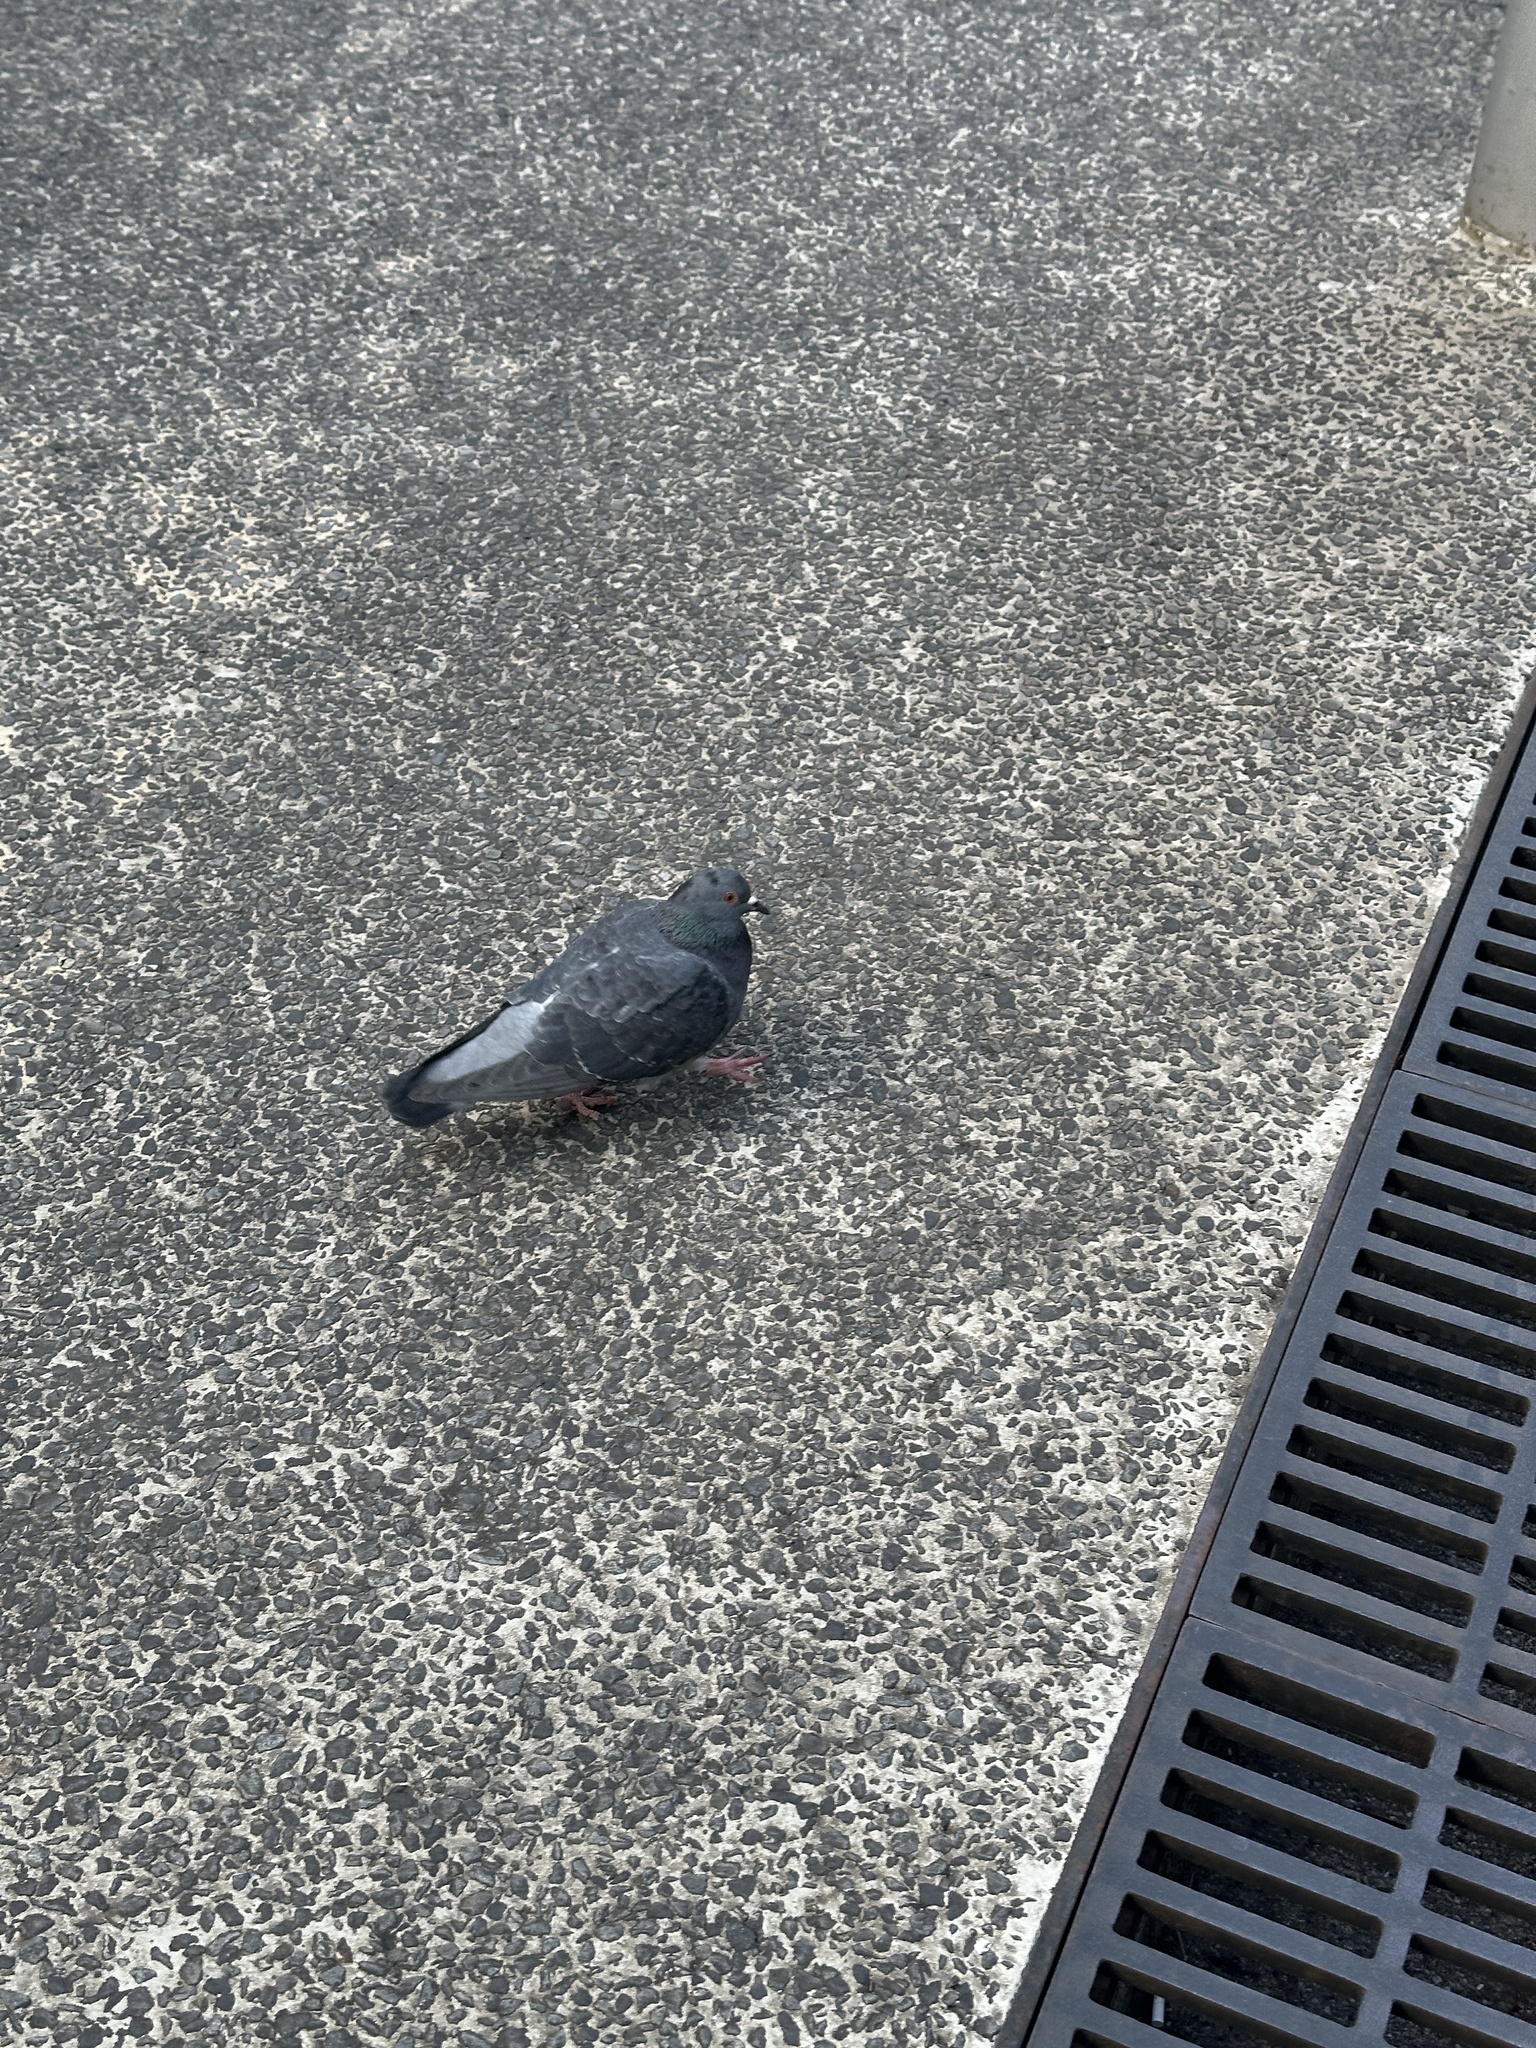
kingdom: Animalia
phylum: Chordata
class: Aves
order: Columbiformes
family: Columbidae
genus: Columba
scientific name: Columba livia
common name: Rock pigeon
